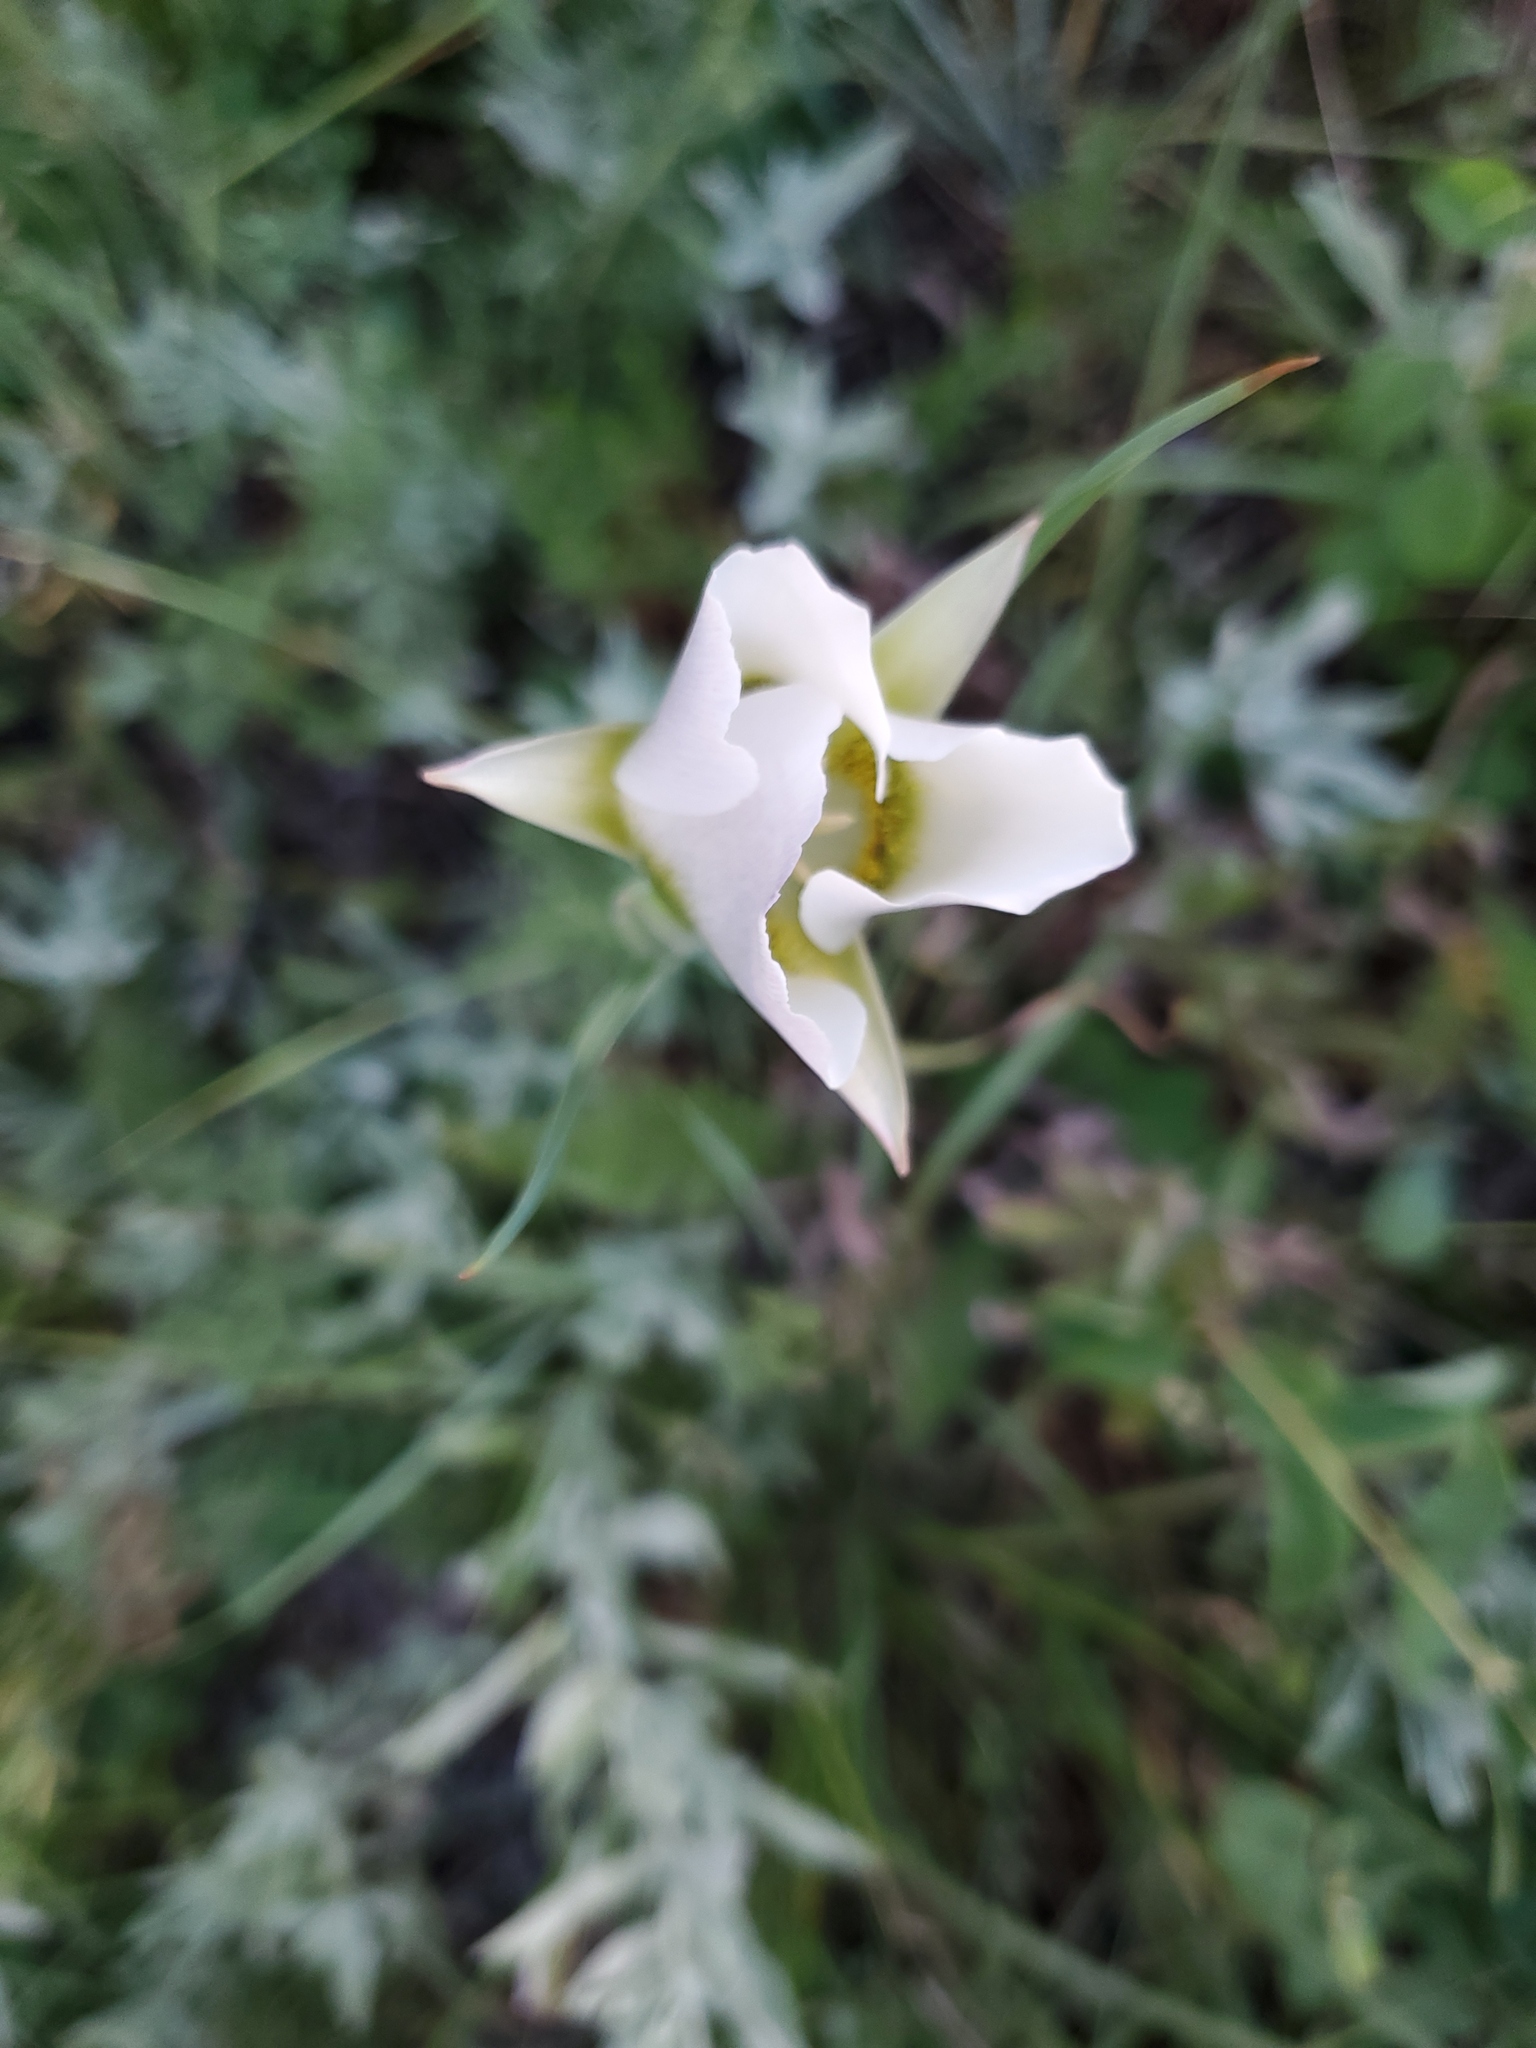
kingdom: Plantae
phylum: Tracheophyta
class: Liliopsida
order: Liliales
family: Liliaceae
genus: Calochortus
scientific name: Calochortus gunnisonii
